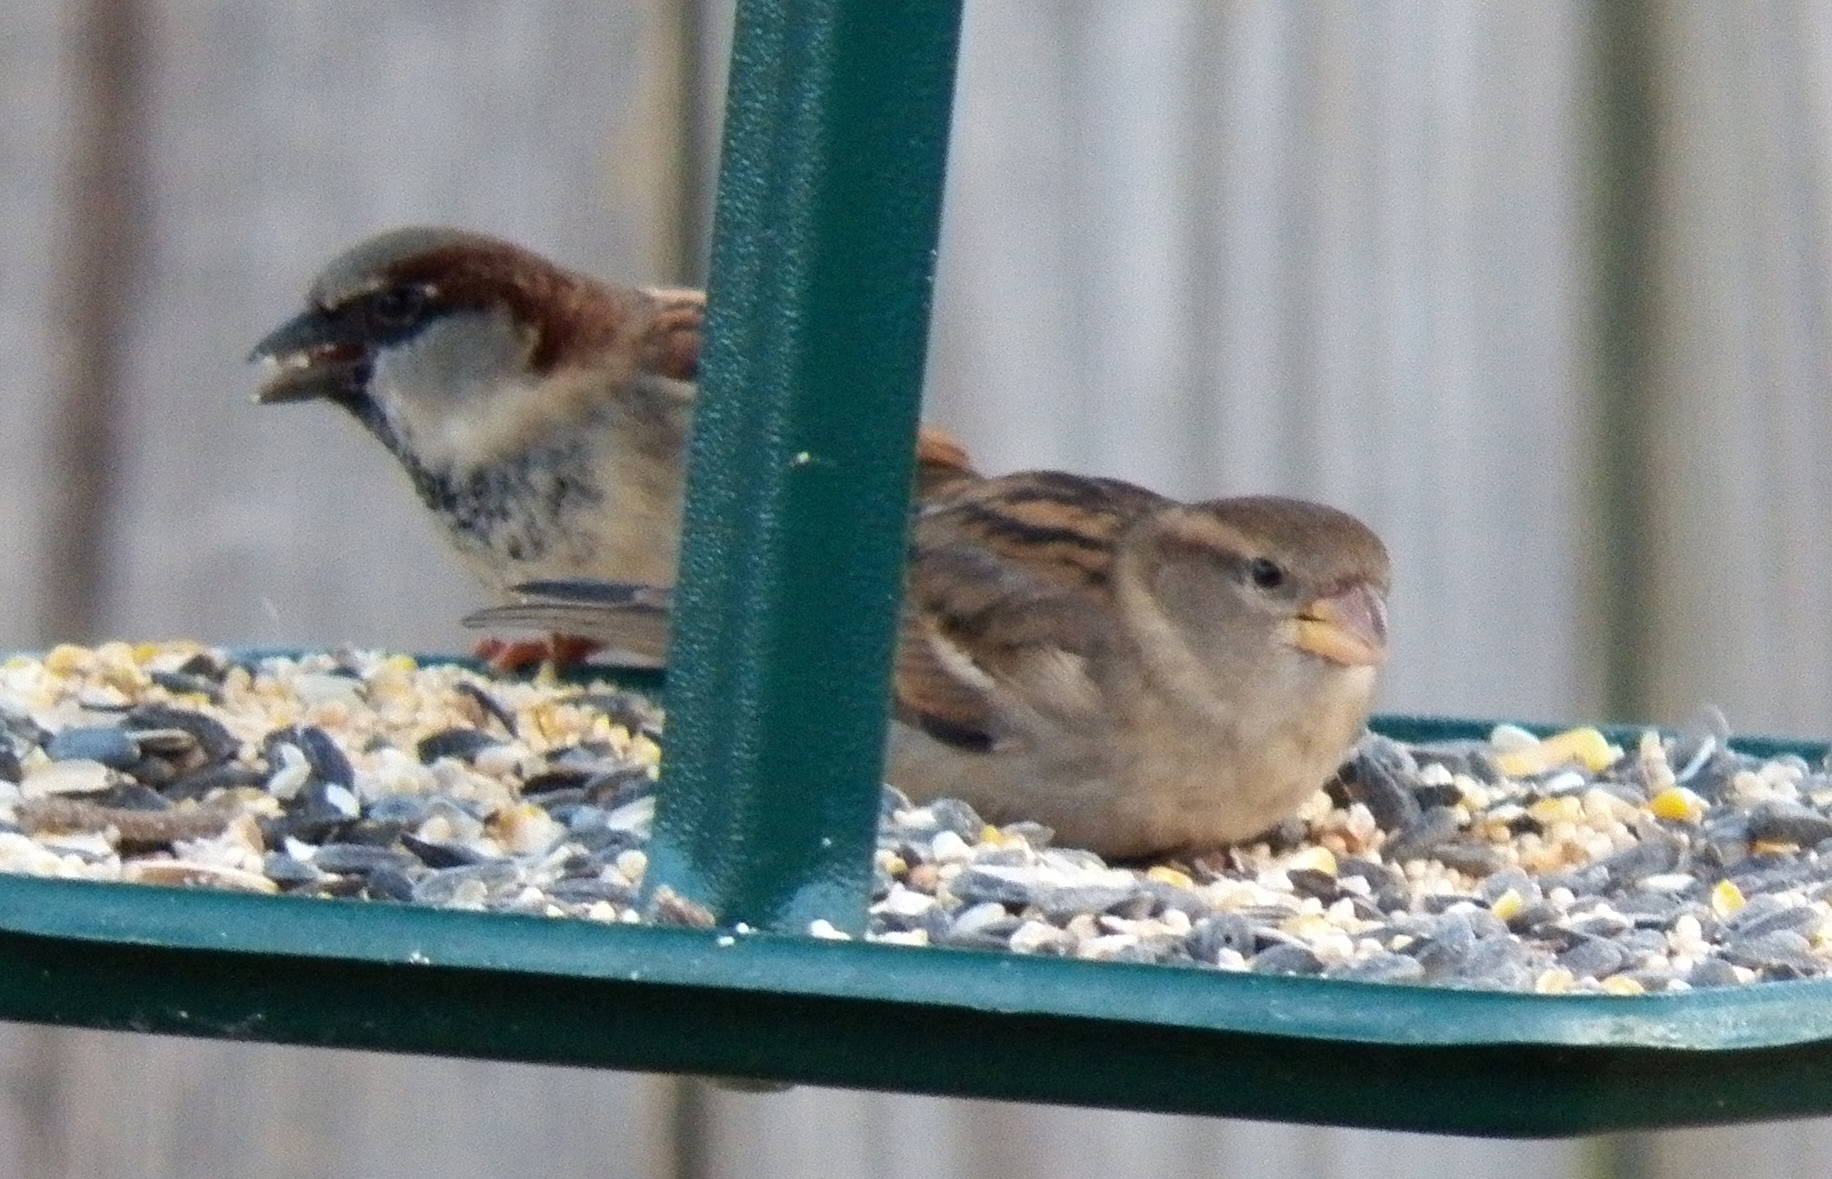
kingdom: Animalia
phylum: Chordata
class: Aves
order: Passeriformes
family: Passeridae
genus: Passer
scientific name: Passer domesticus
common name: House sparrow
